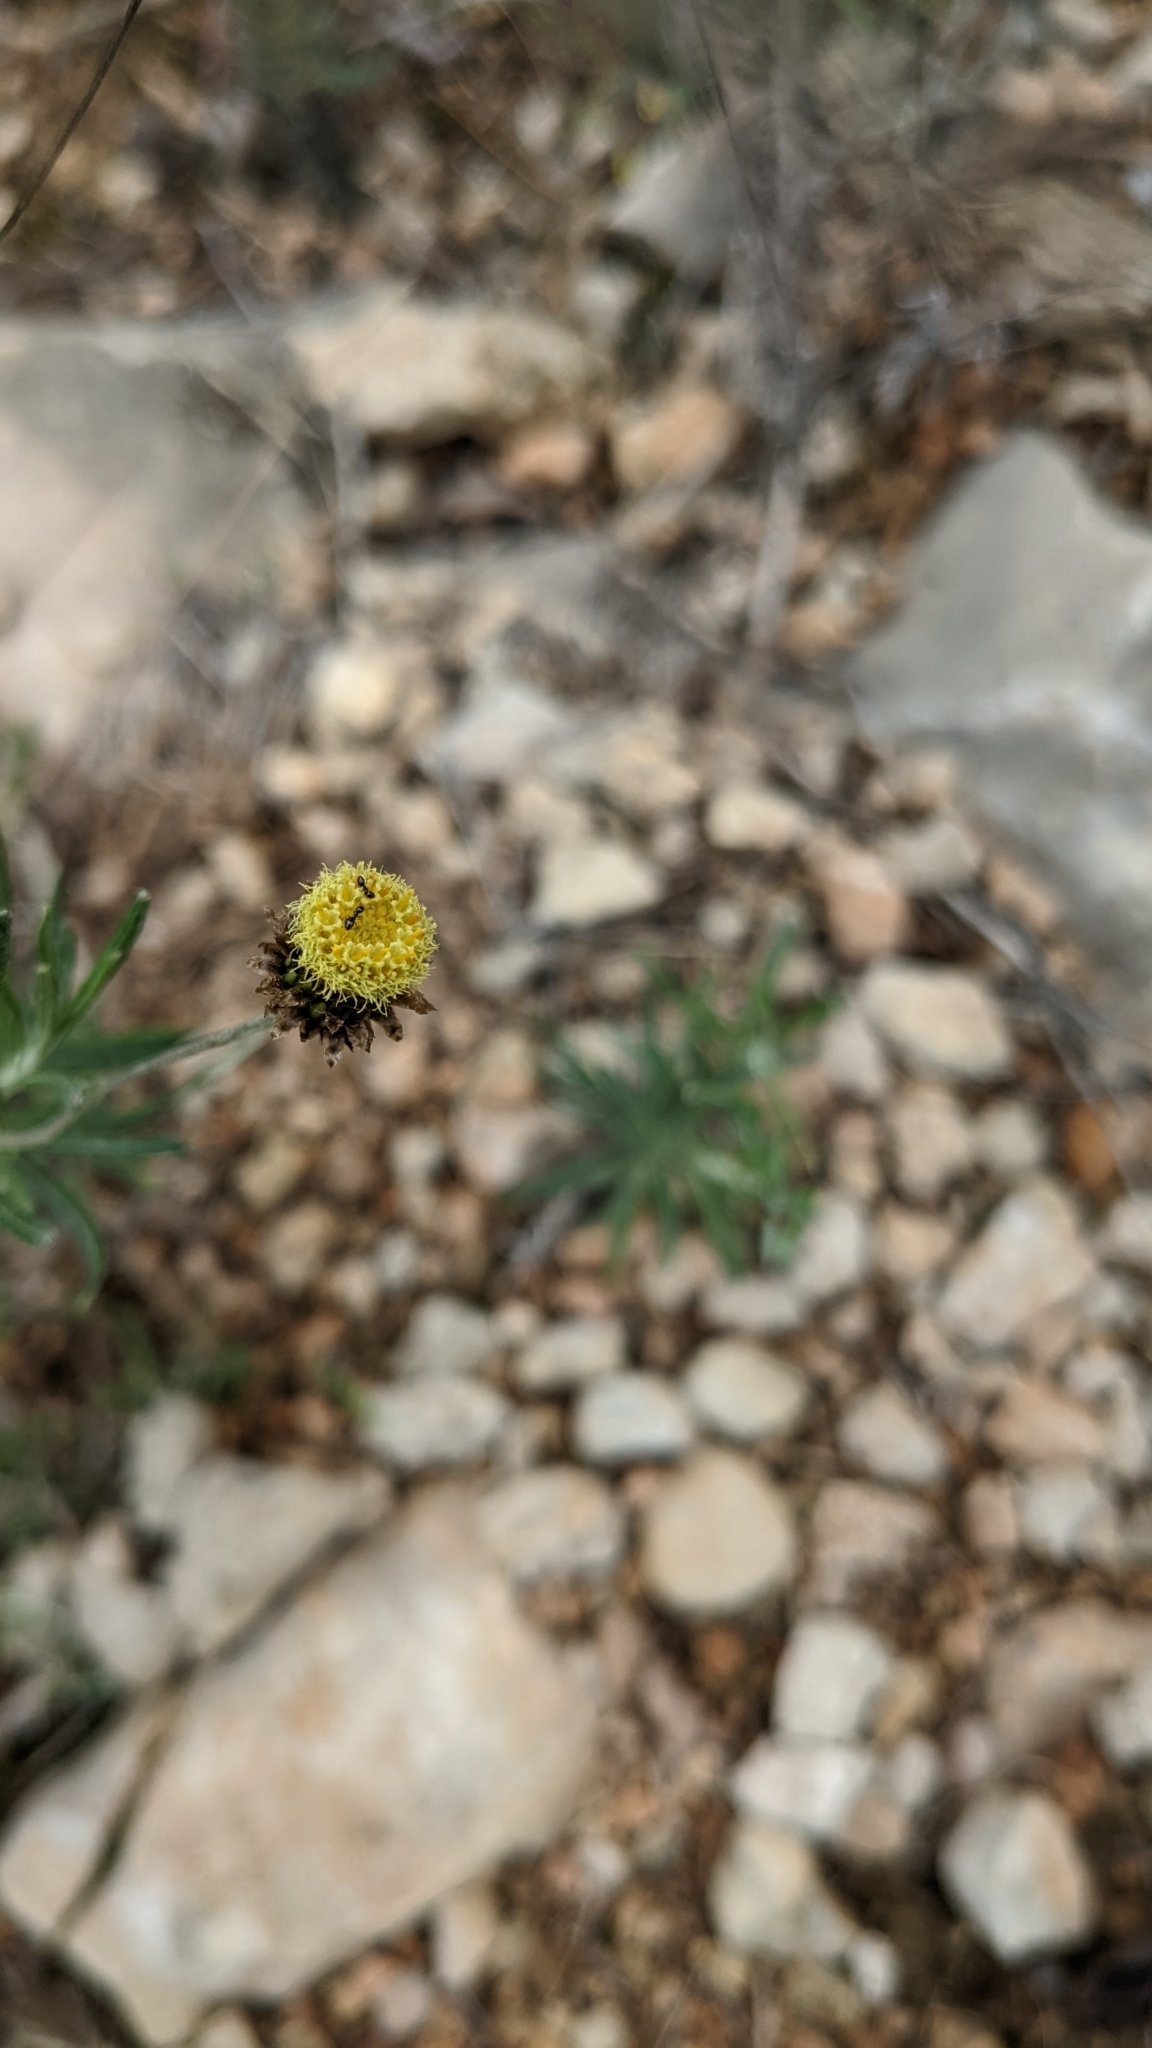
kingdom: Plantae
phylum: Tracheophyta
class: Magnoliopsida
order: Asterales
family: Asteraceae
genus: Phagnalon
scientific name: Phagnalon saxatile
